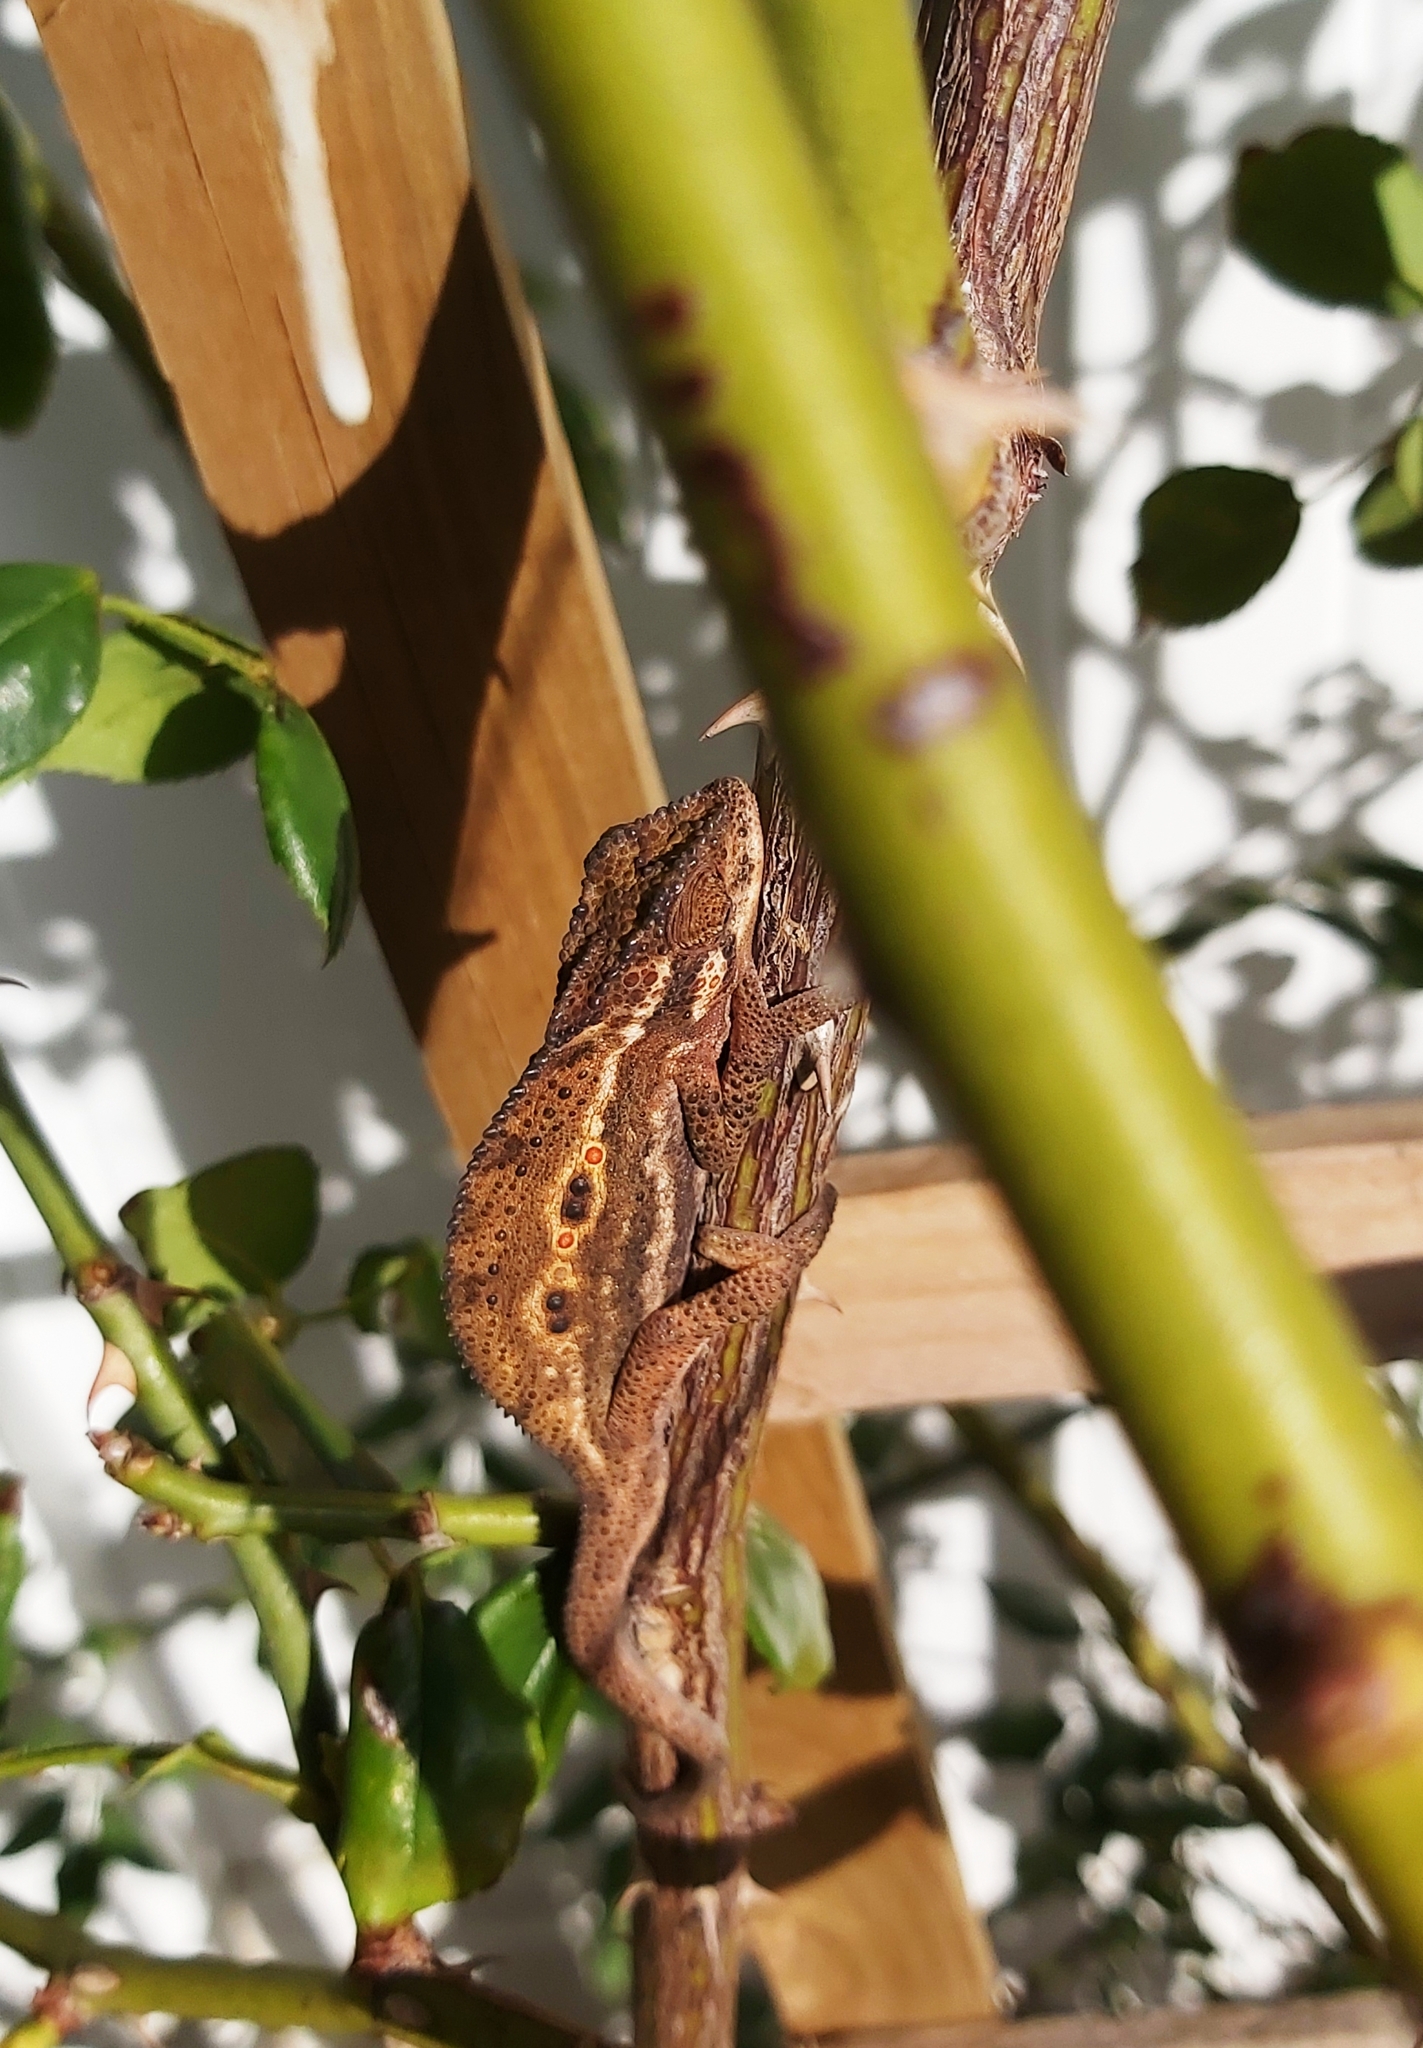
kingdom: Animalia
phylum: Chordata
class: Squamata
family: Chamaeleonidae
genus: Bradypodion
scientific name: Bradypodion pumilum
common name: Cape dwarf chameleon
